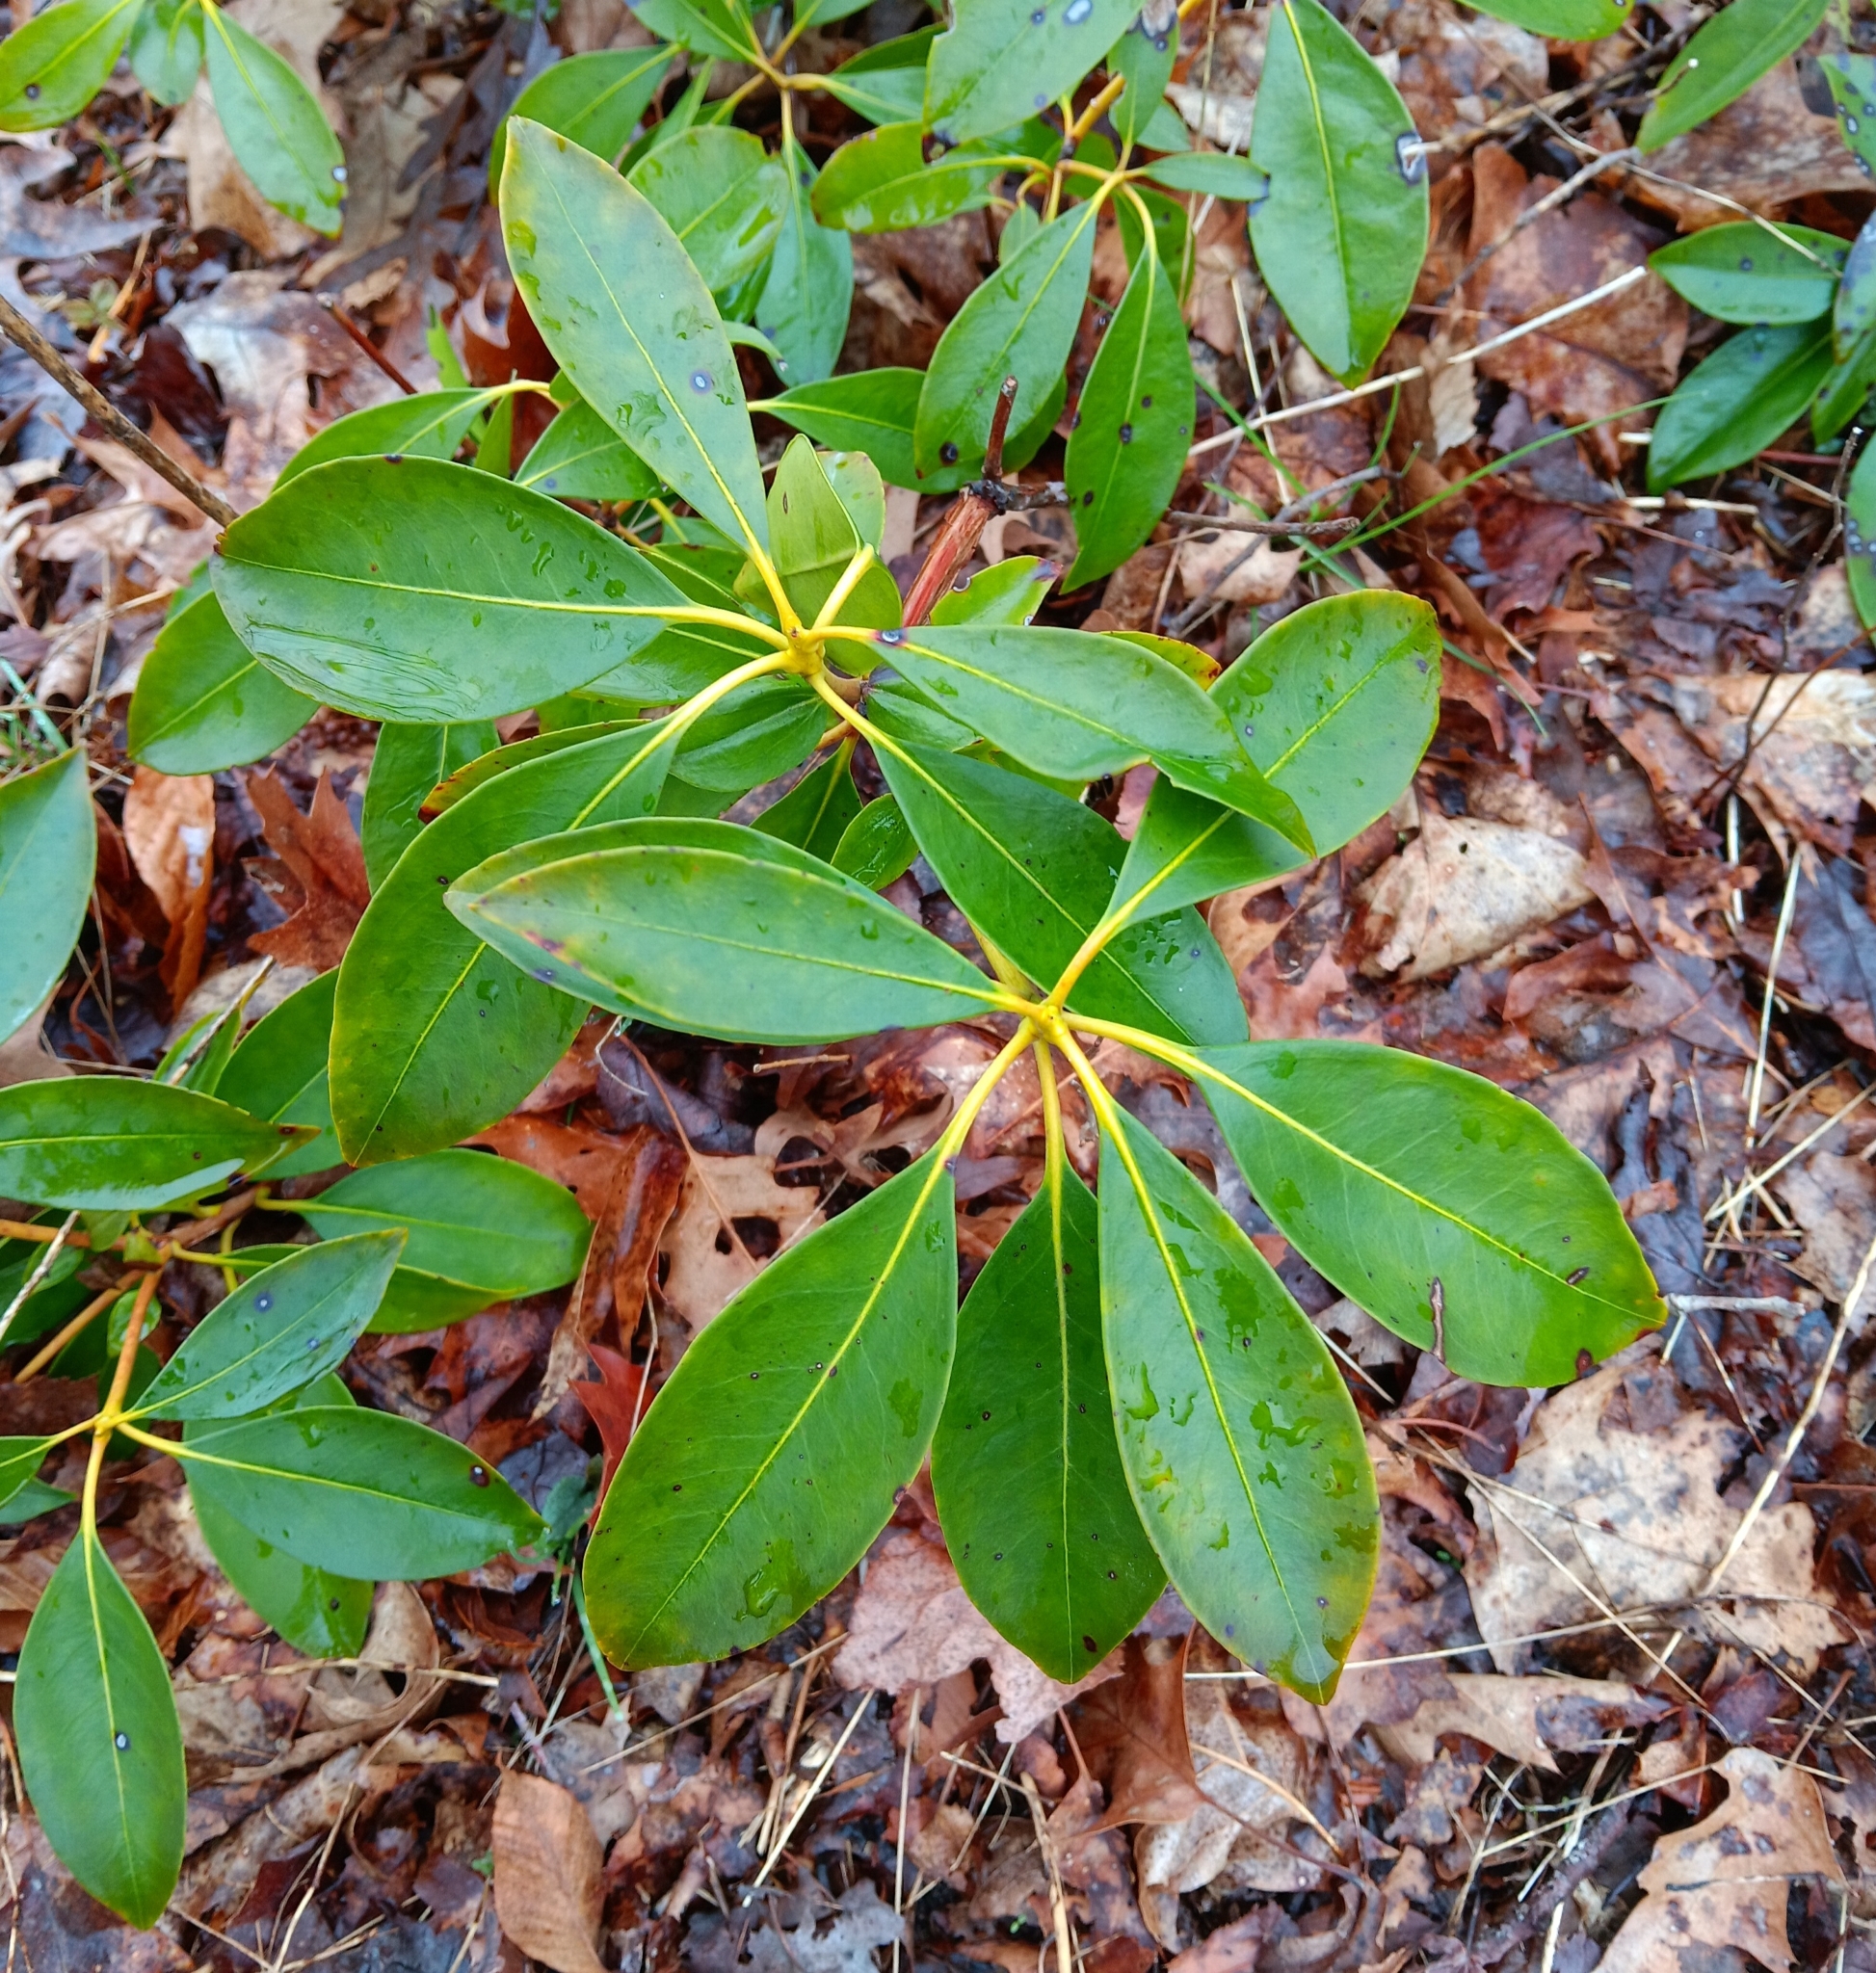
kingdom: Plantae
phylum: Tracheophyta
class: Magnoliopsida
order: Ericales
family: Ericaceae
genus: Kalmia
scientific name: Kalmia latifolia
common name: Mountain-laurel
